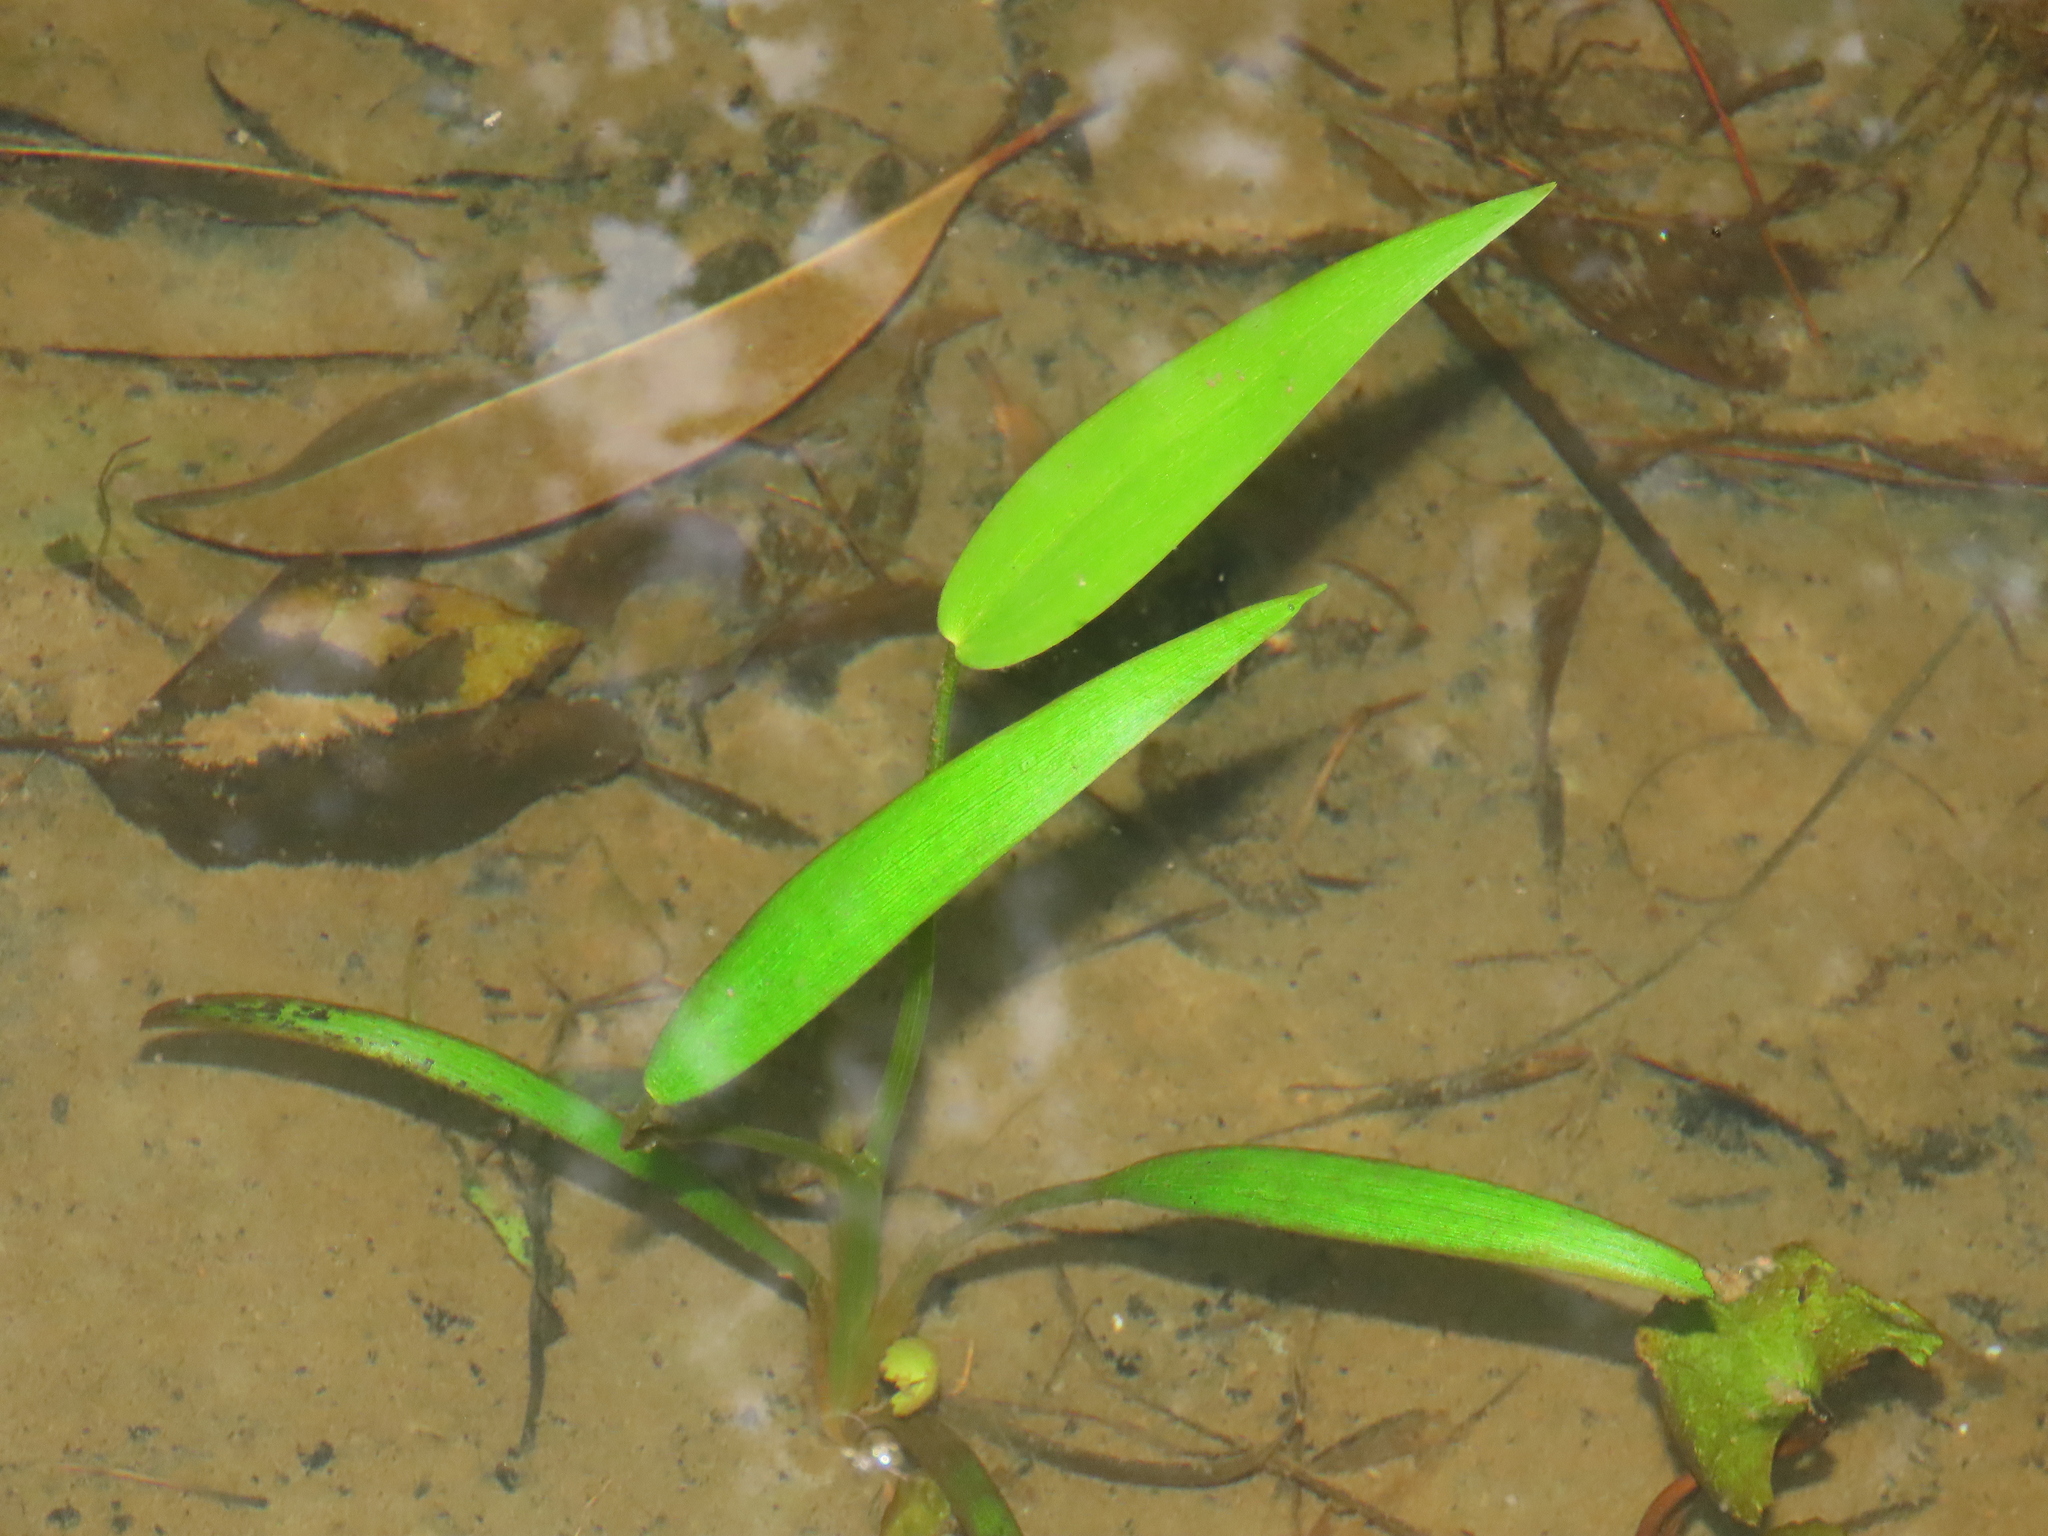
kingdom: Plantae
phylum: Tracheophyta
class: Liliopsida
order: Commelinales
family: Pontederiaceae
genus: Pontederia
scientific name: Pontederia vaginalis
